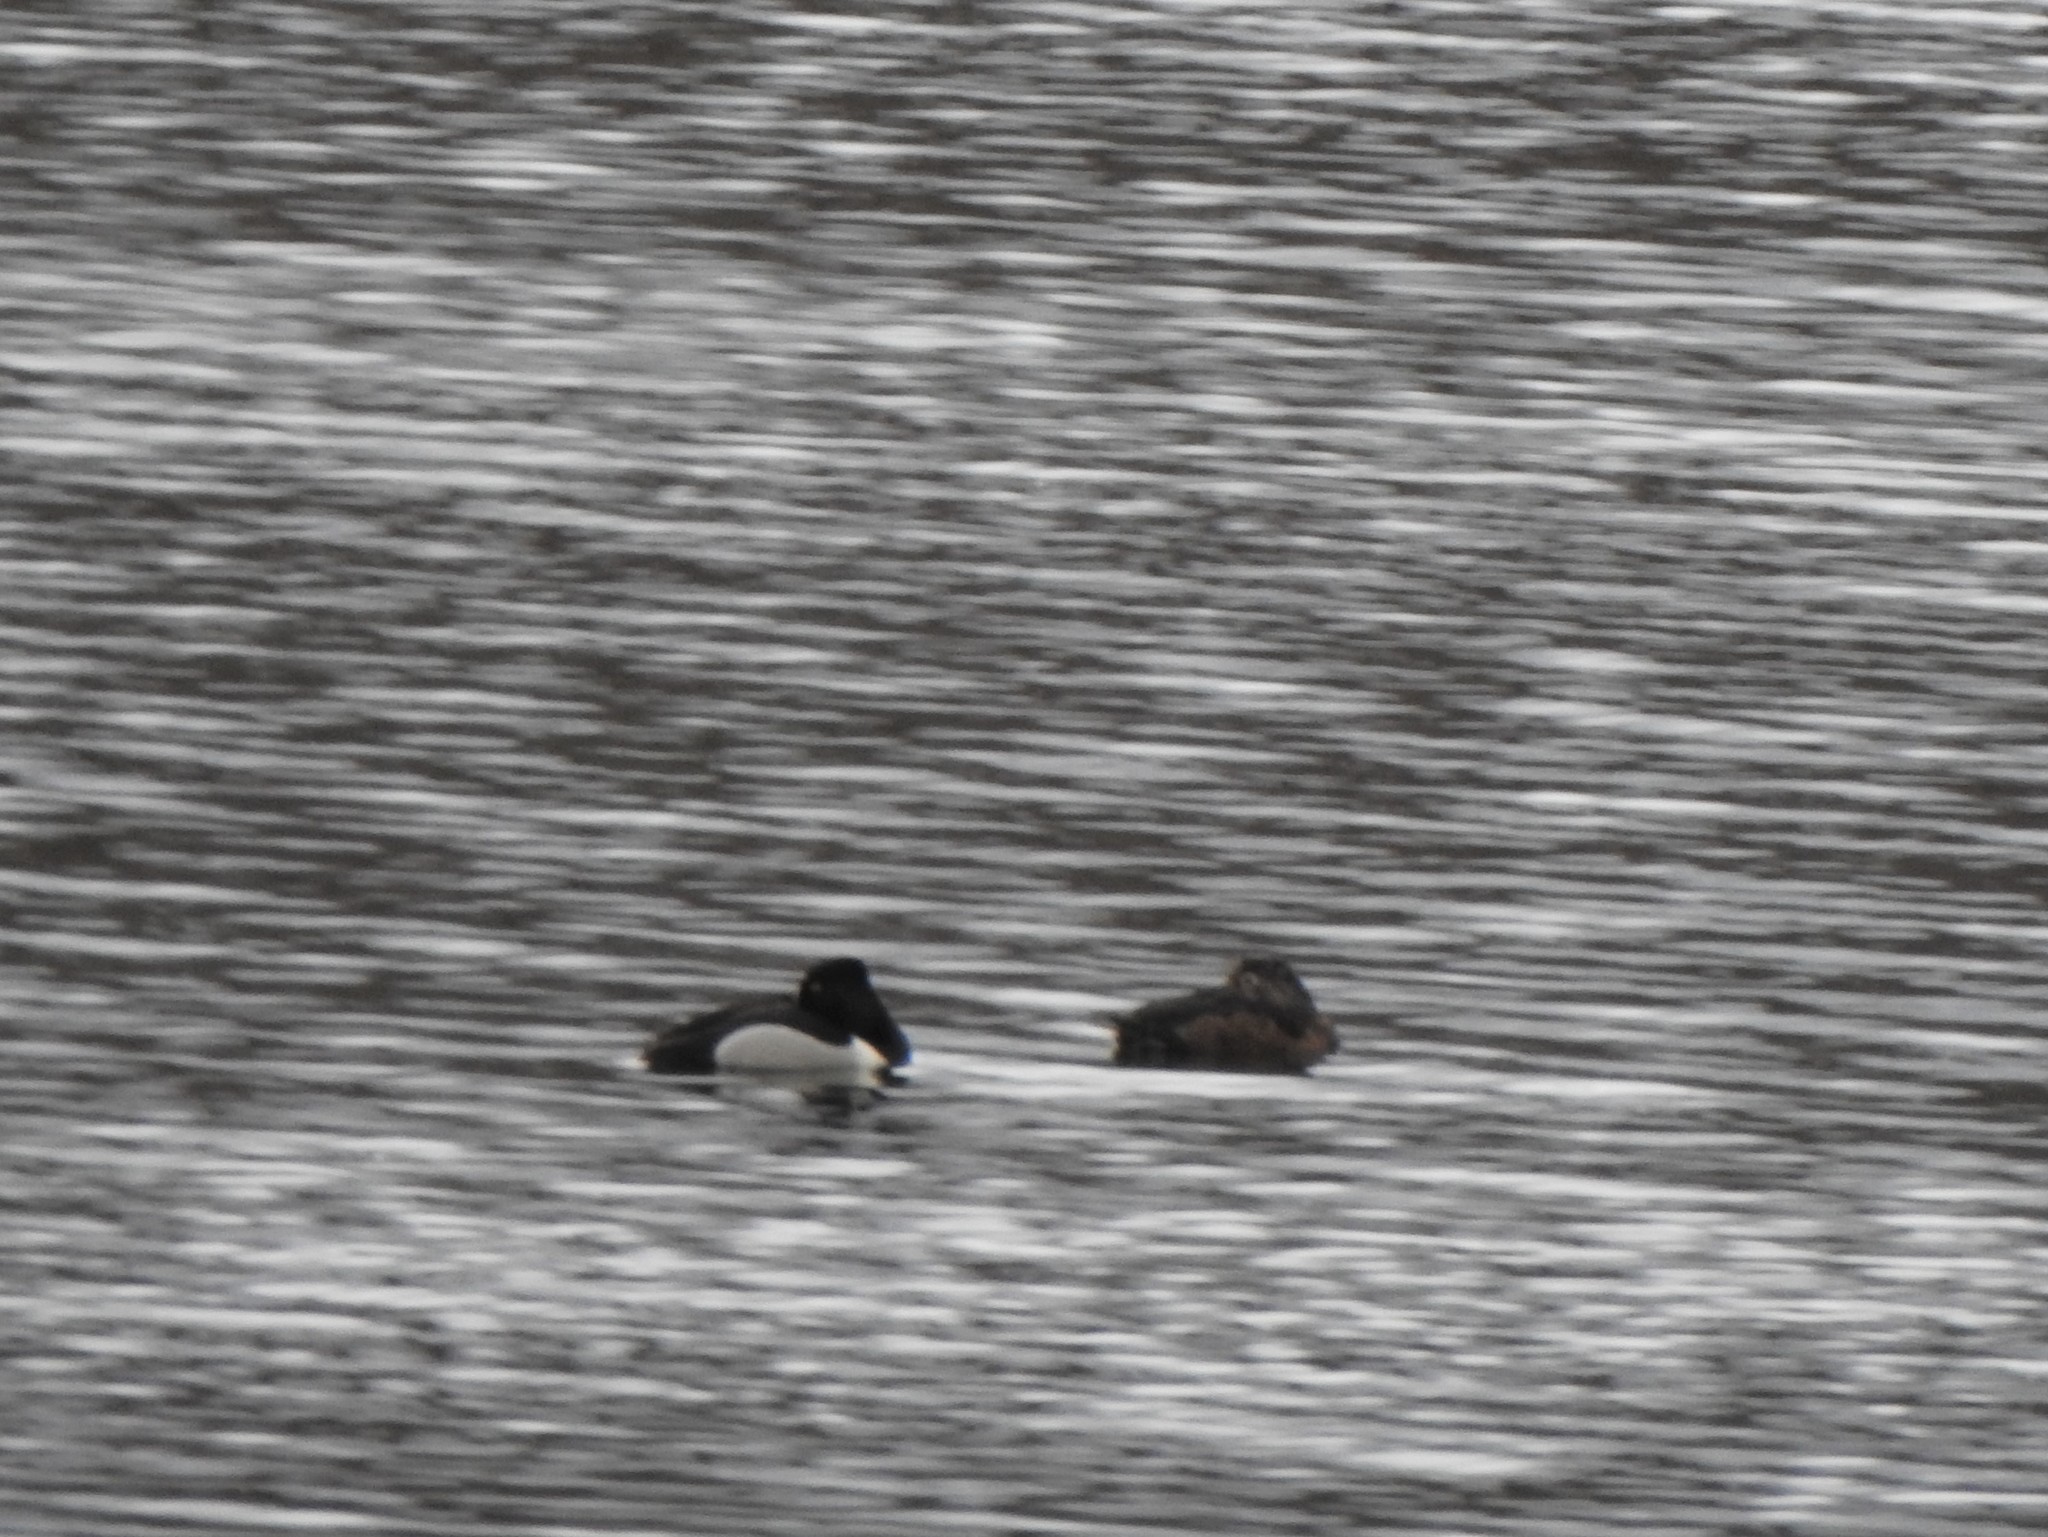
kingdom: Animalia
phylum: Chordata
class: Aves
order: Anseriformes
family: Anatidae
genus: Aythya
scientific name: Aythya collaris
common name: Ring-necked duck
